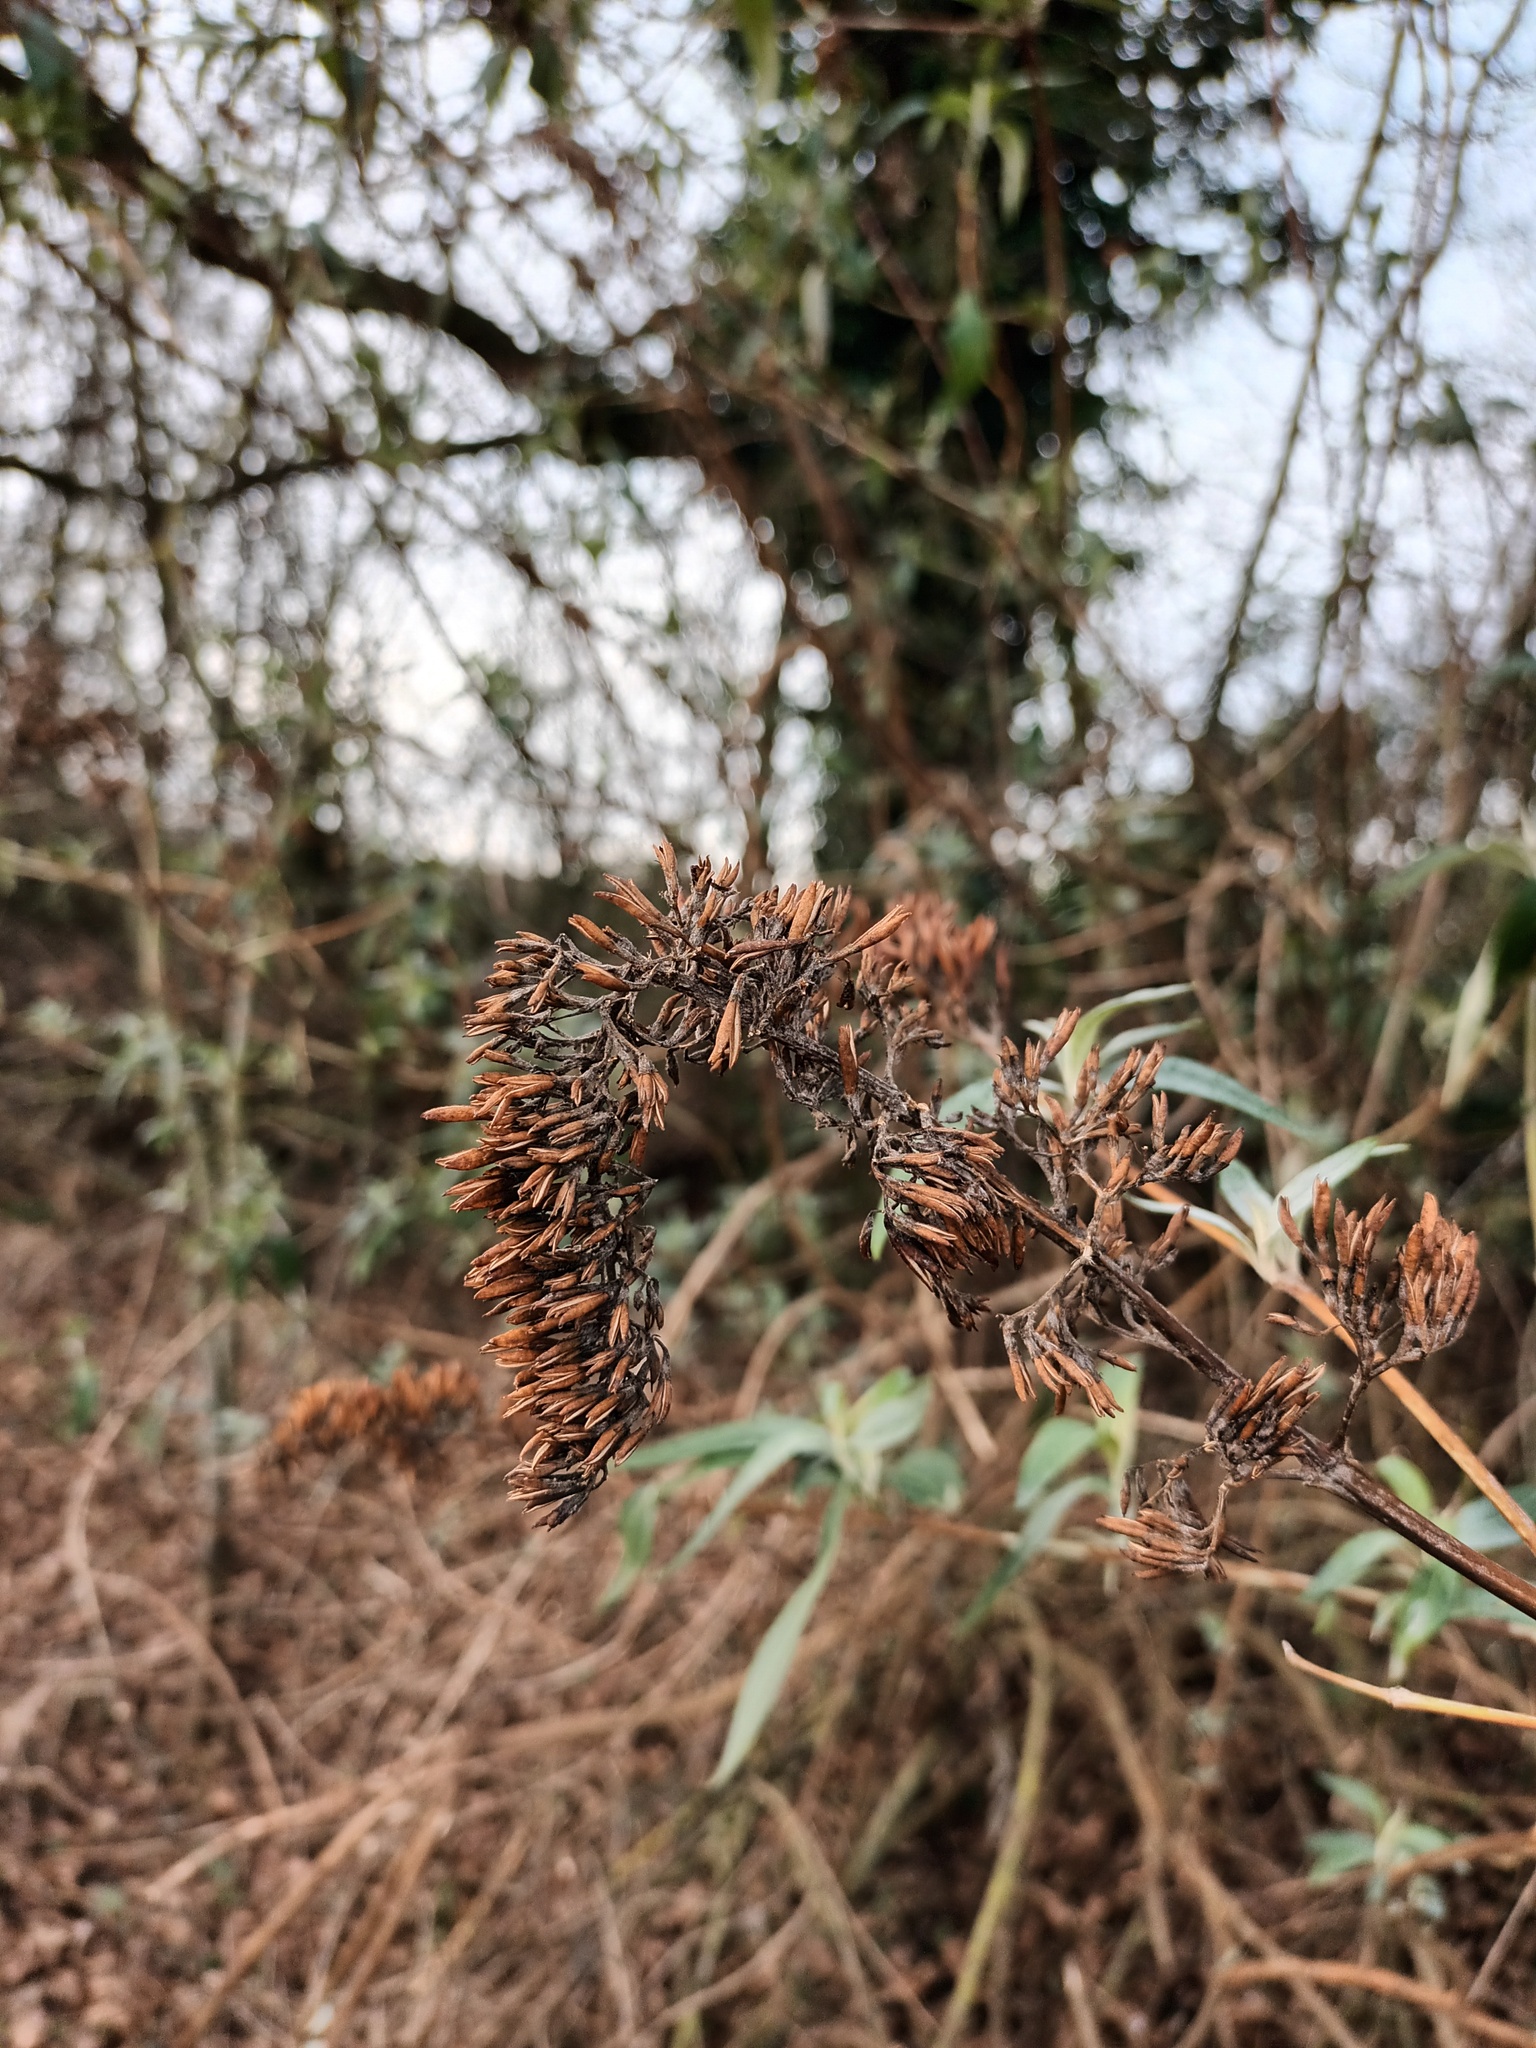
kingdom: Plantae
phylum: Tracheophyta
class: Magnoliopsida
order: Lamiales
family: Scrophulariaceae
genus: Buddleja
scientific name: Buddleja davidii
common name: Butterfly-bush
